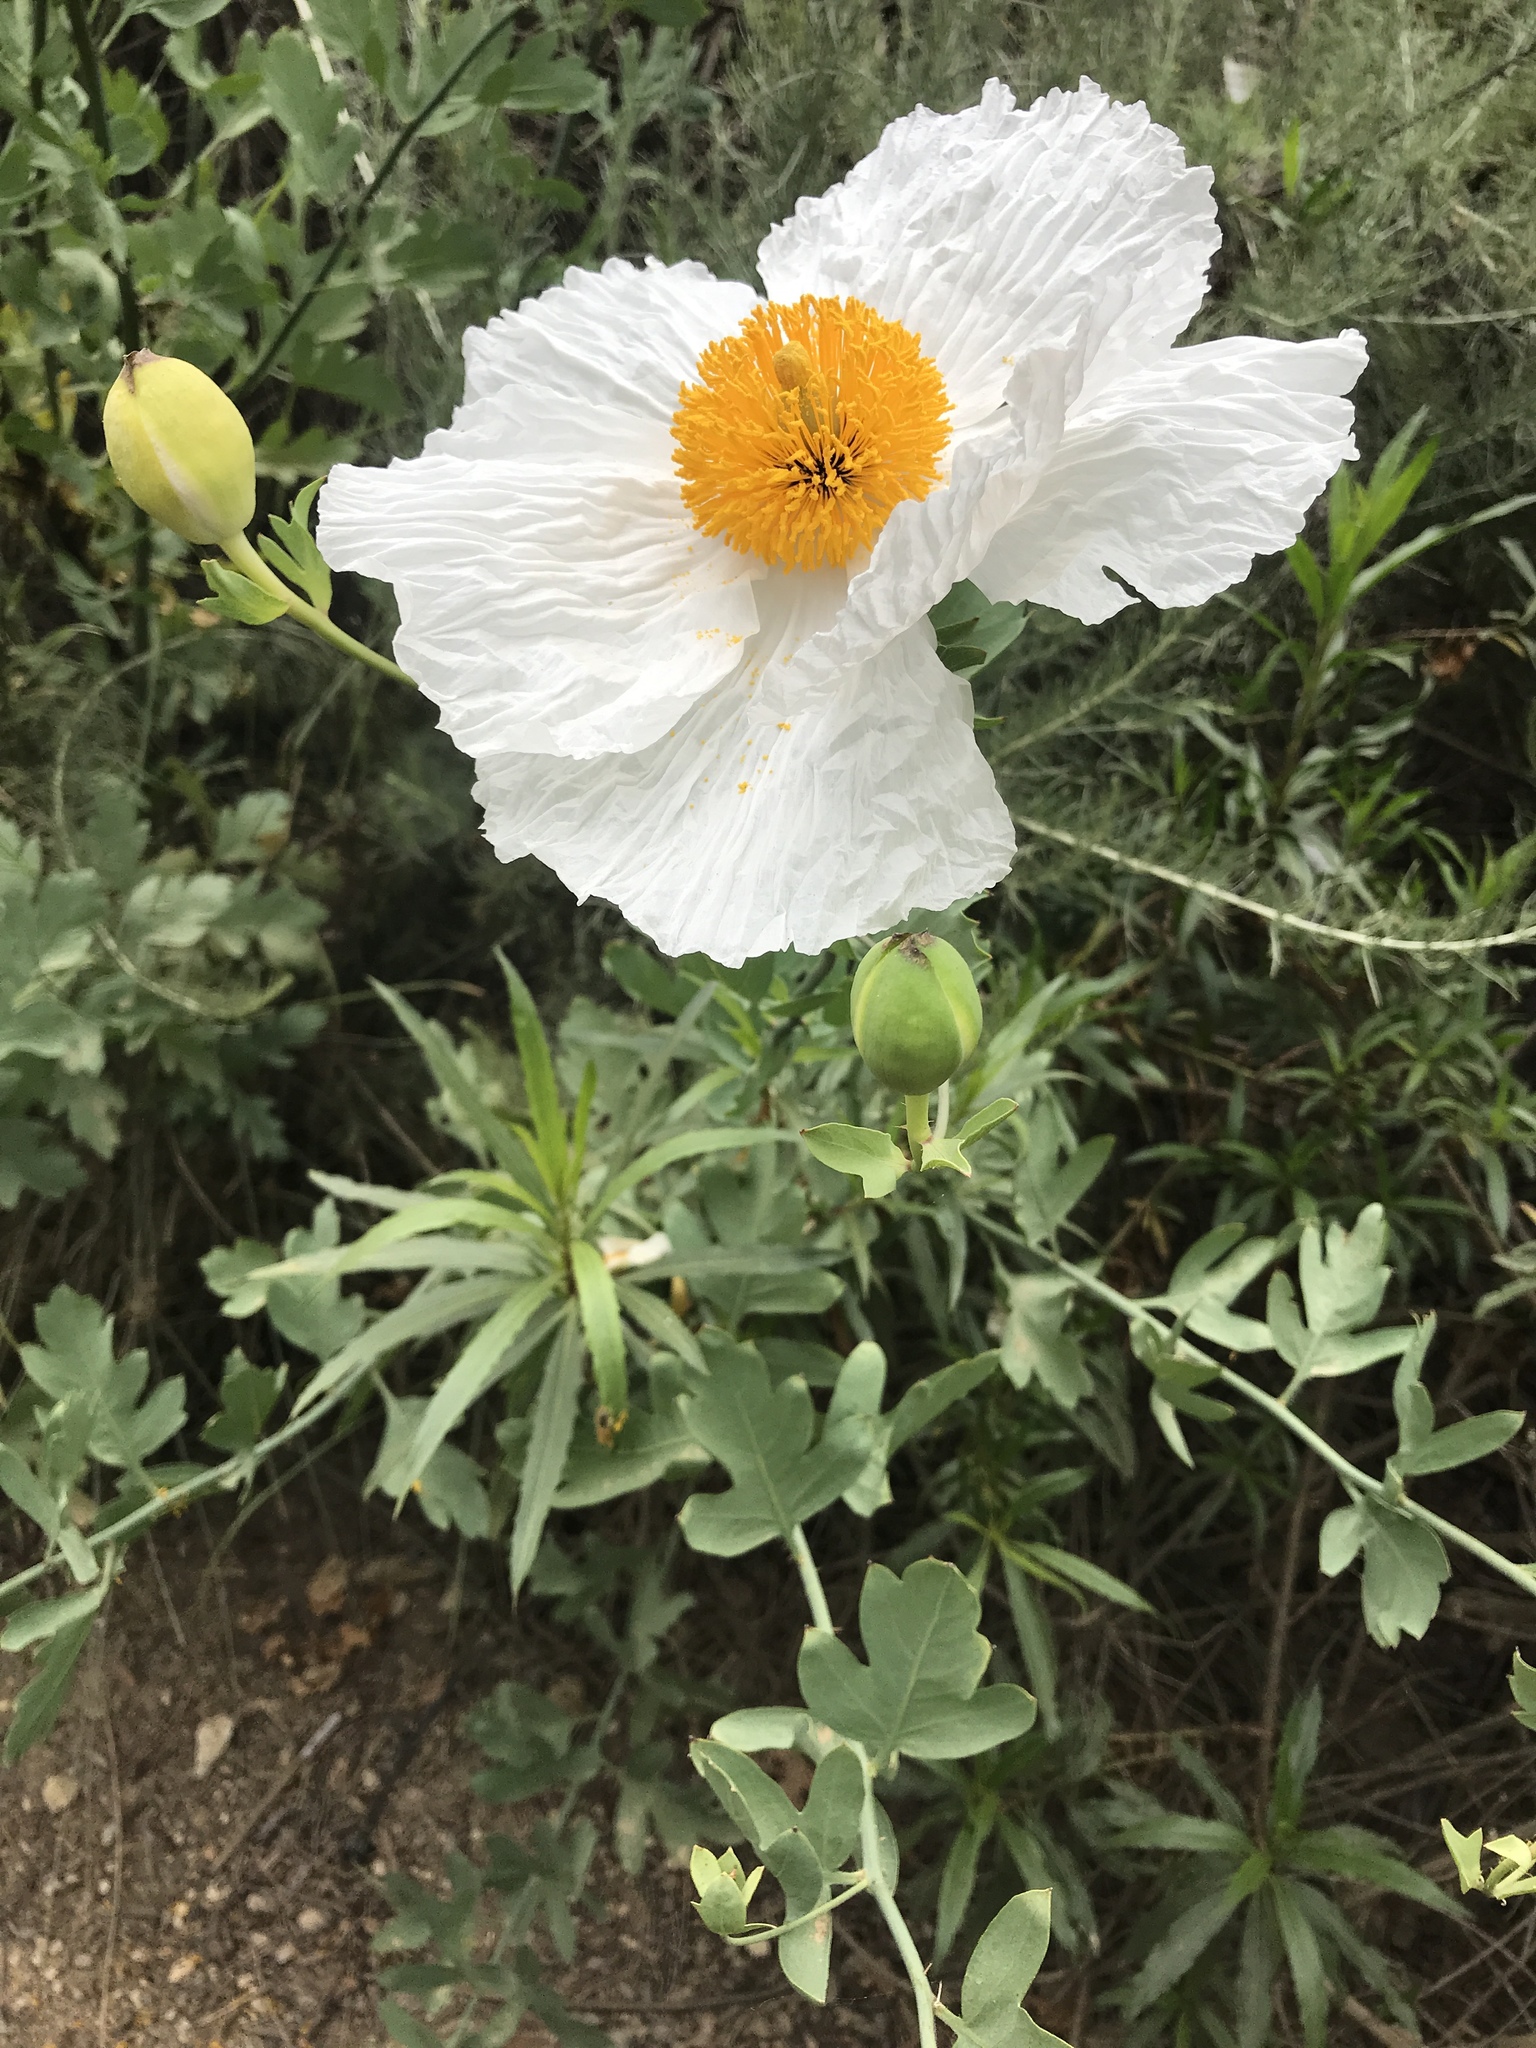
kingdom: Plantae
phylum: Tracheophyta
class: Magnoliopsida
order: Ranunculales
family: Papaveraceae
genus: Romneya
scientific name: Romneya coulteri
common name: California tree-poppy
